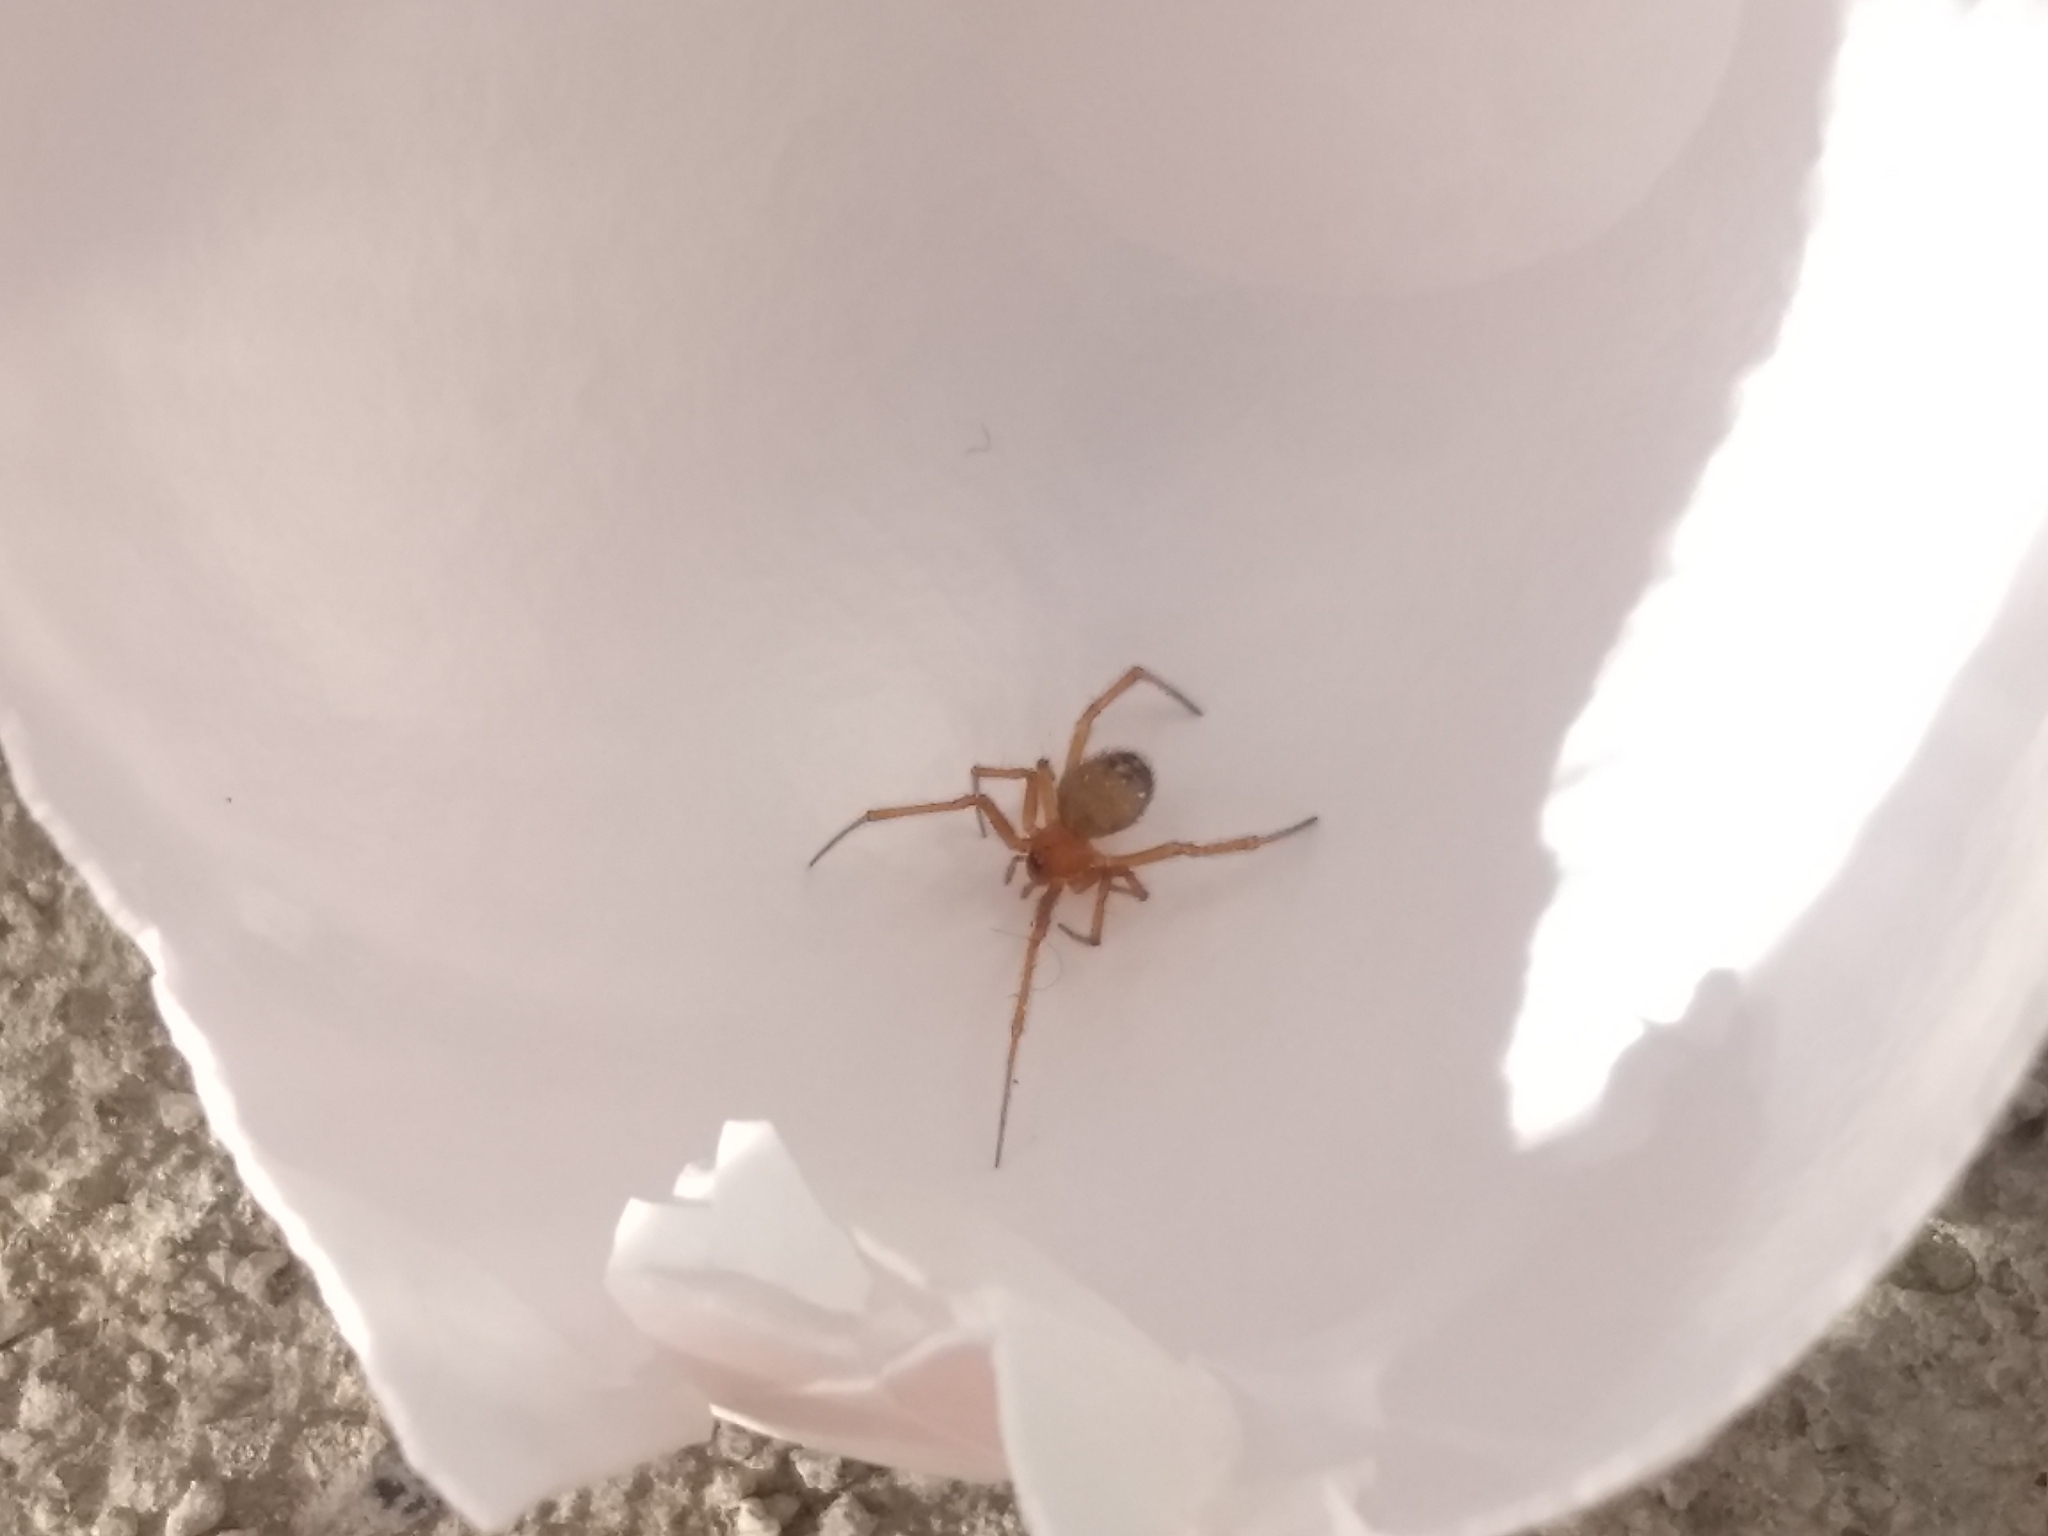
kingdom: Animalia
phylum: Arthropoda
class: Arachnida
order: Araneae
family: Theridiidae
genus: Nesticodes
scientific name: Nesticodes rufipes
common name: Cobweb spiders
